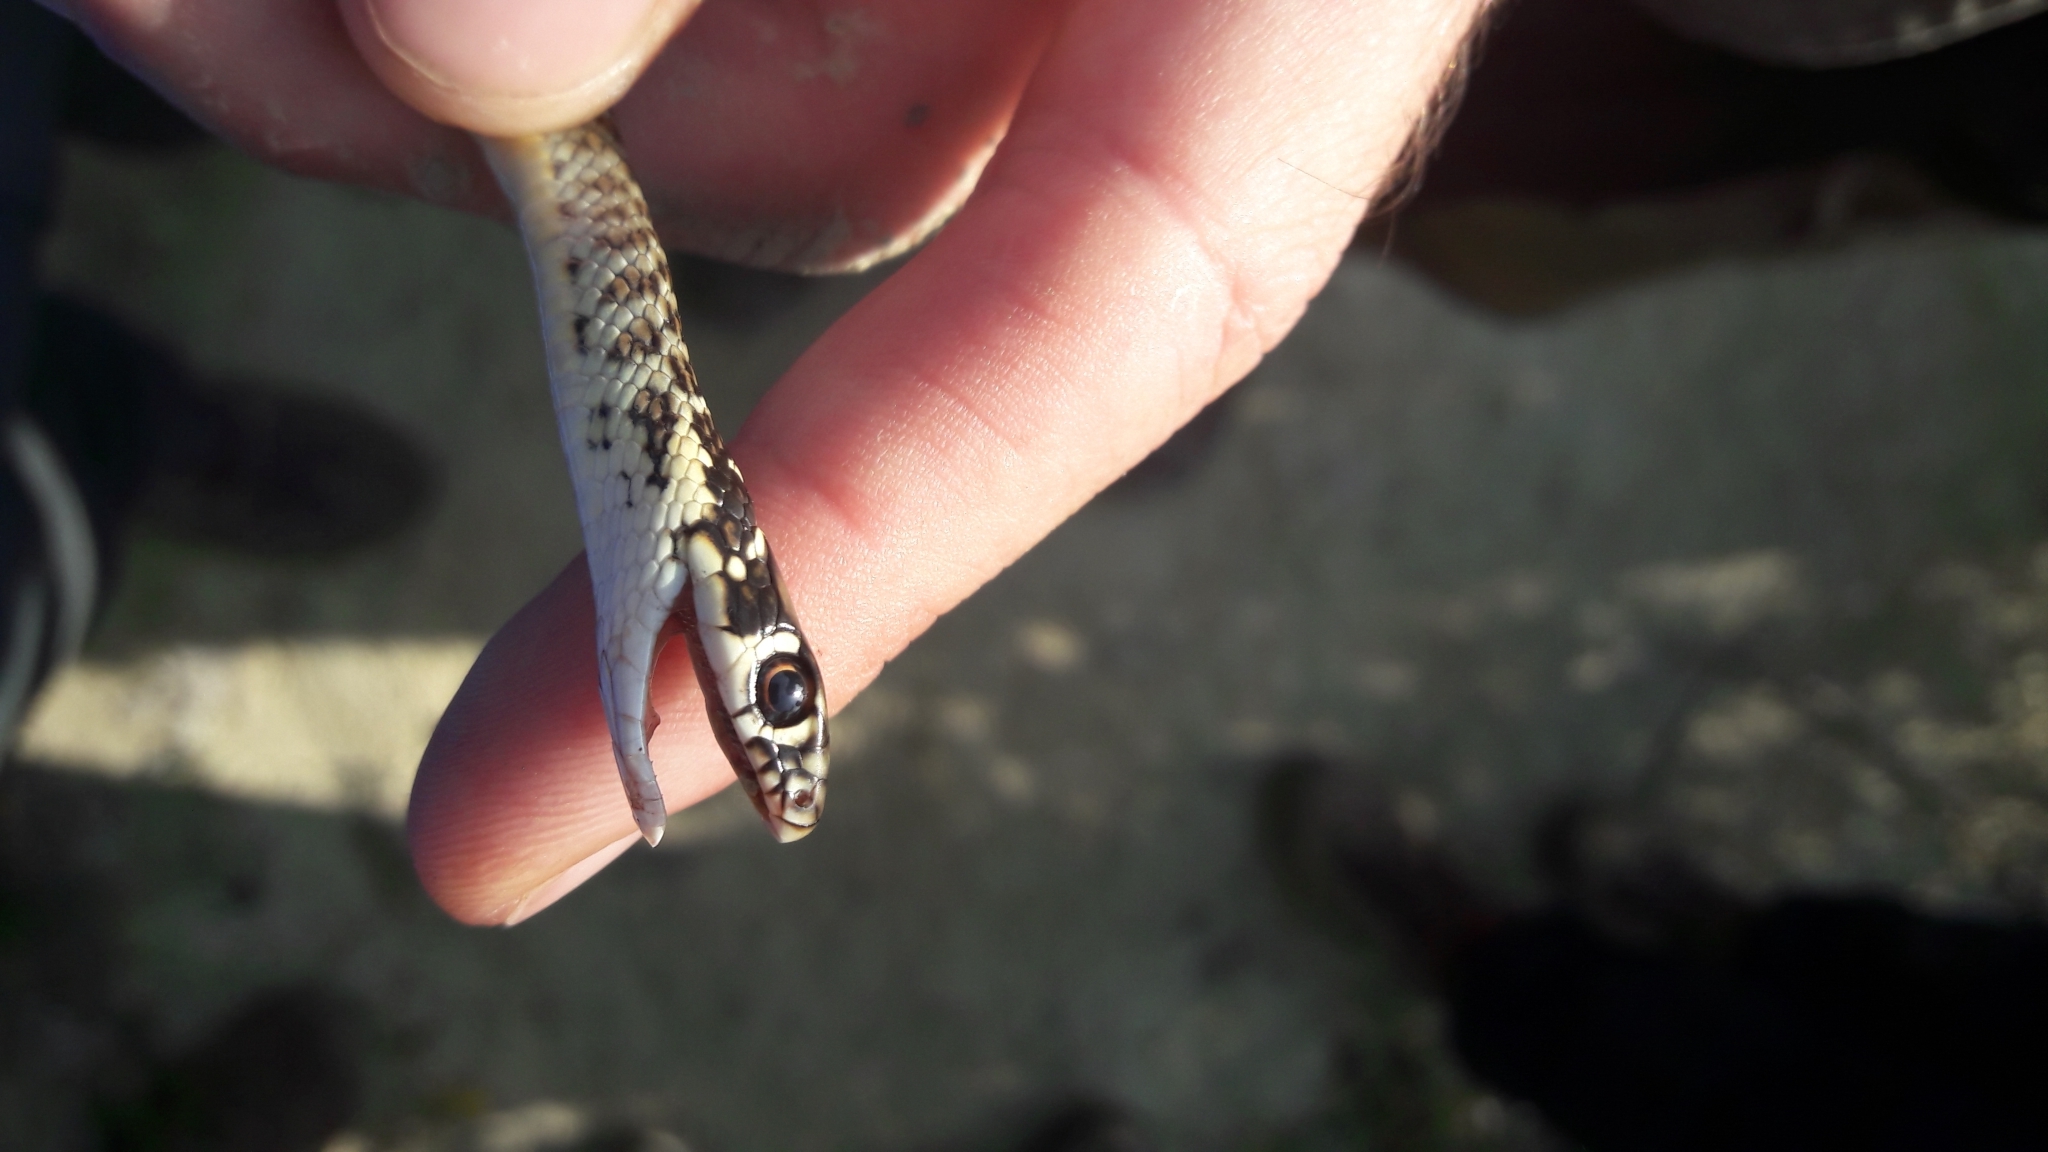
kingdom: Animalia
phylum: Chordata
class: Squamata
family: Colubridae
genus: Hierophis
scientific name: Hierophis viridiflavus
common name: Green whip snake
